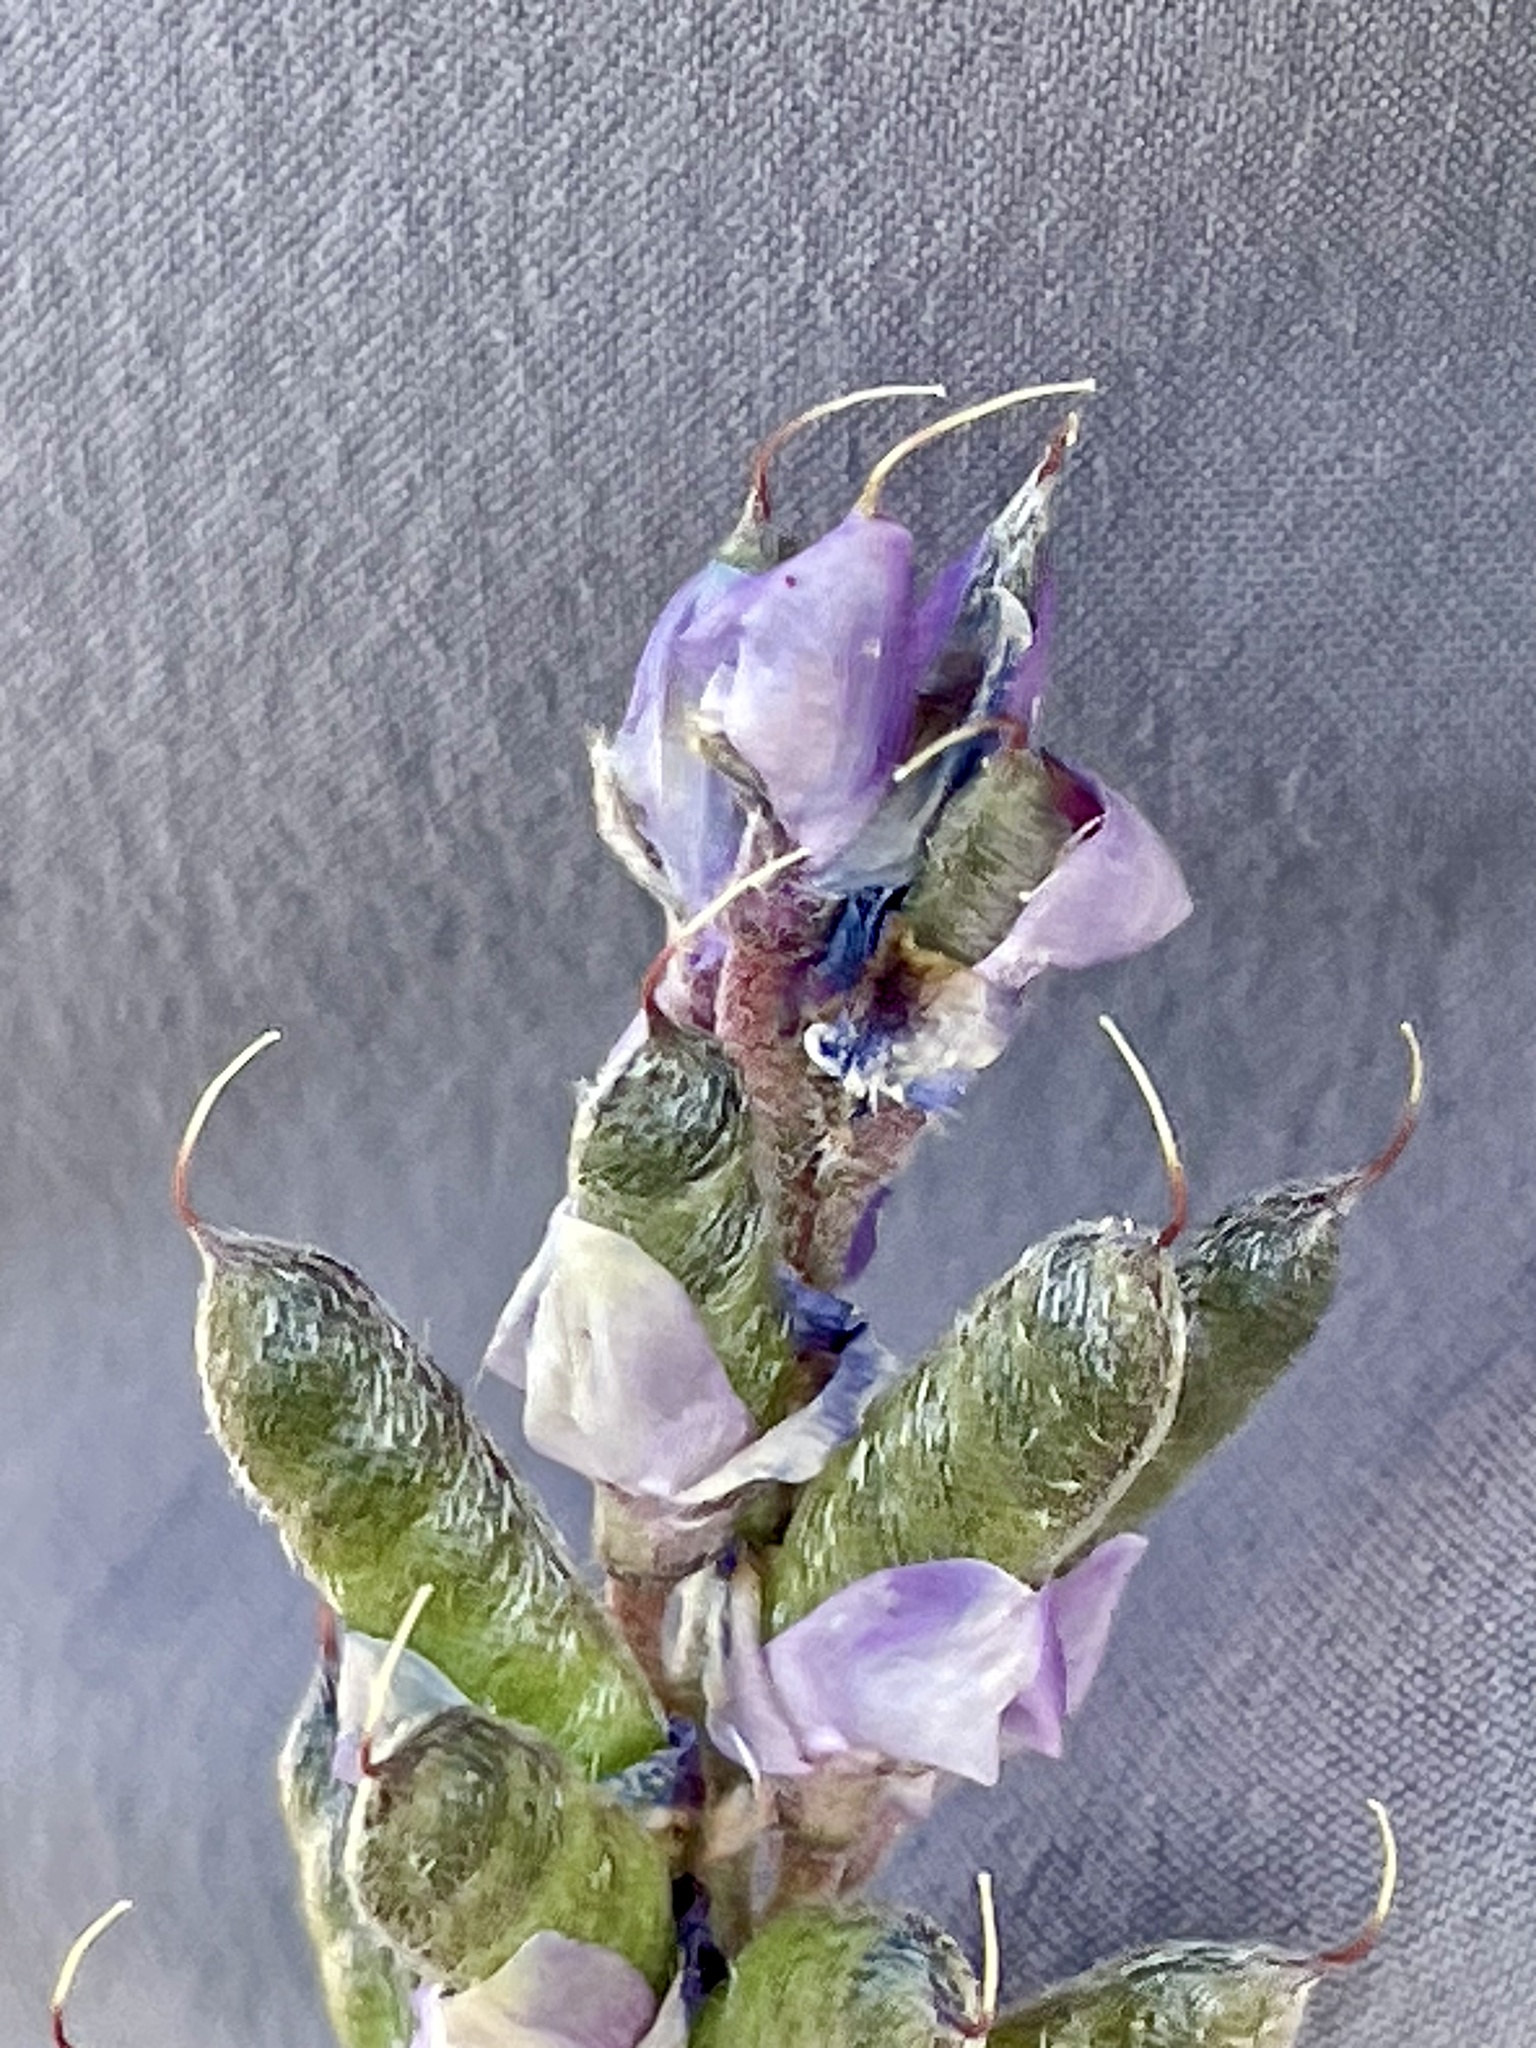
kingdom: Plantae
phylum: Tracheophyta
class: Magnoliopsida
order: Fabales
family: Fabaceae
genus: Lupinus
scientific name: Lupinus arizonicus
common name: Arizona lupine
